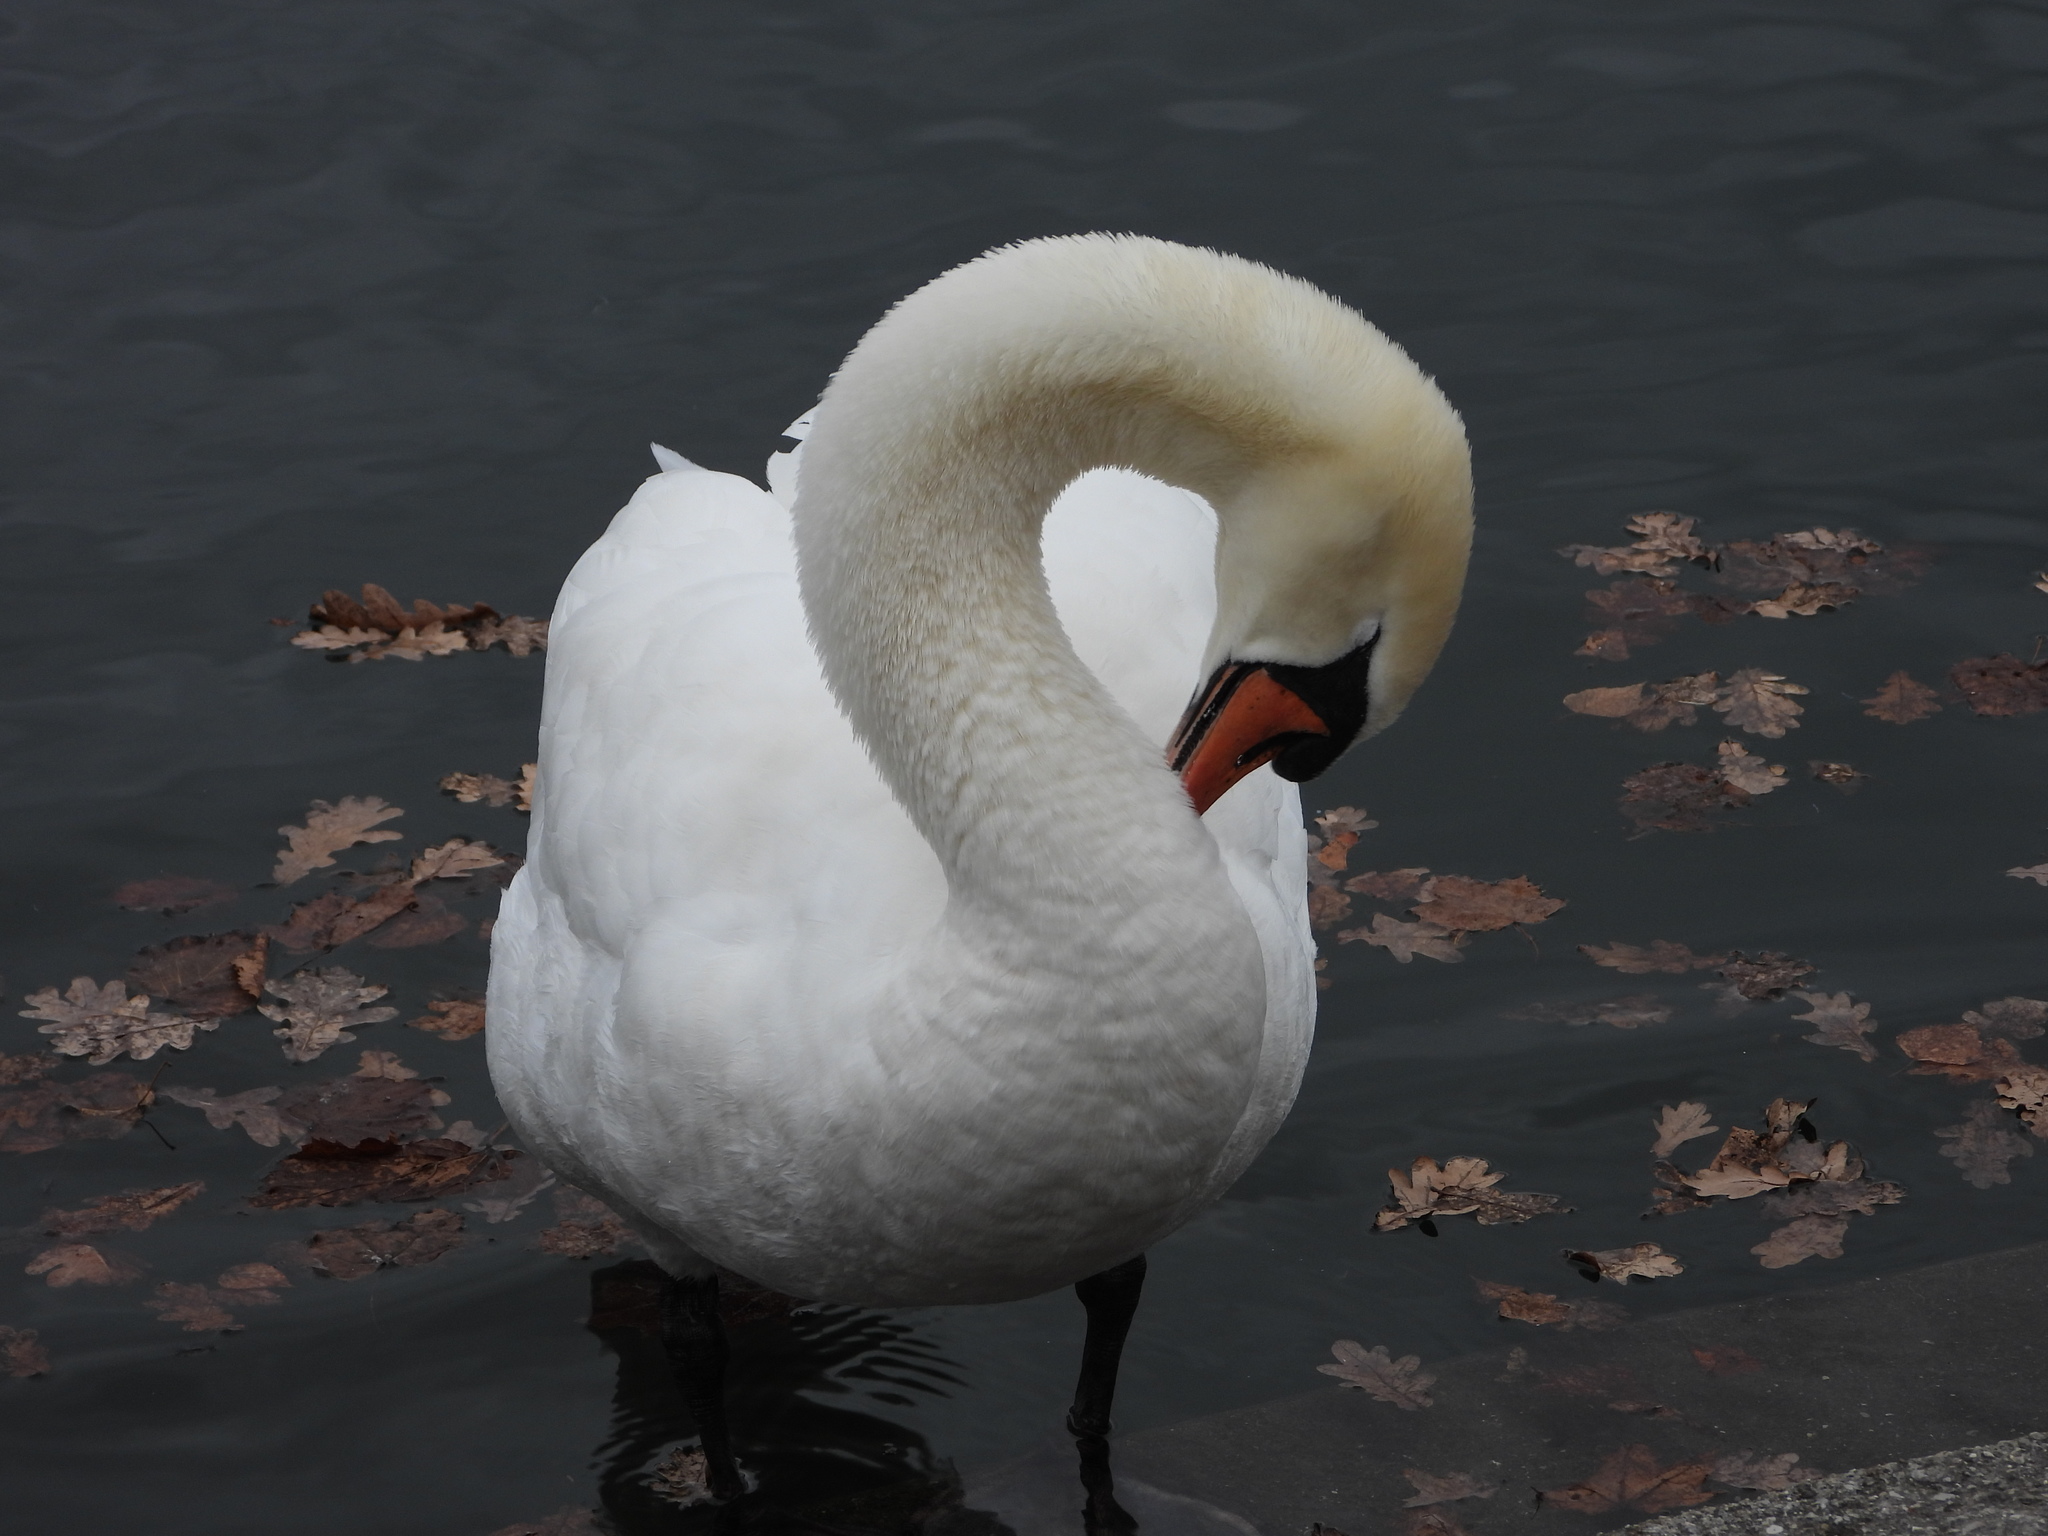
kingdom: Animalia
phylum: Chordata
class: Aves
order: Anseriformes
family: Anatidae
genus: Cygnus
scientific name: Cygnus olor
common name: Mute swan
